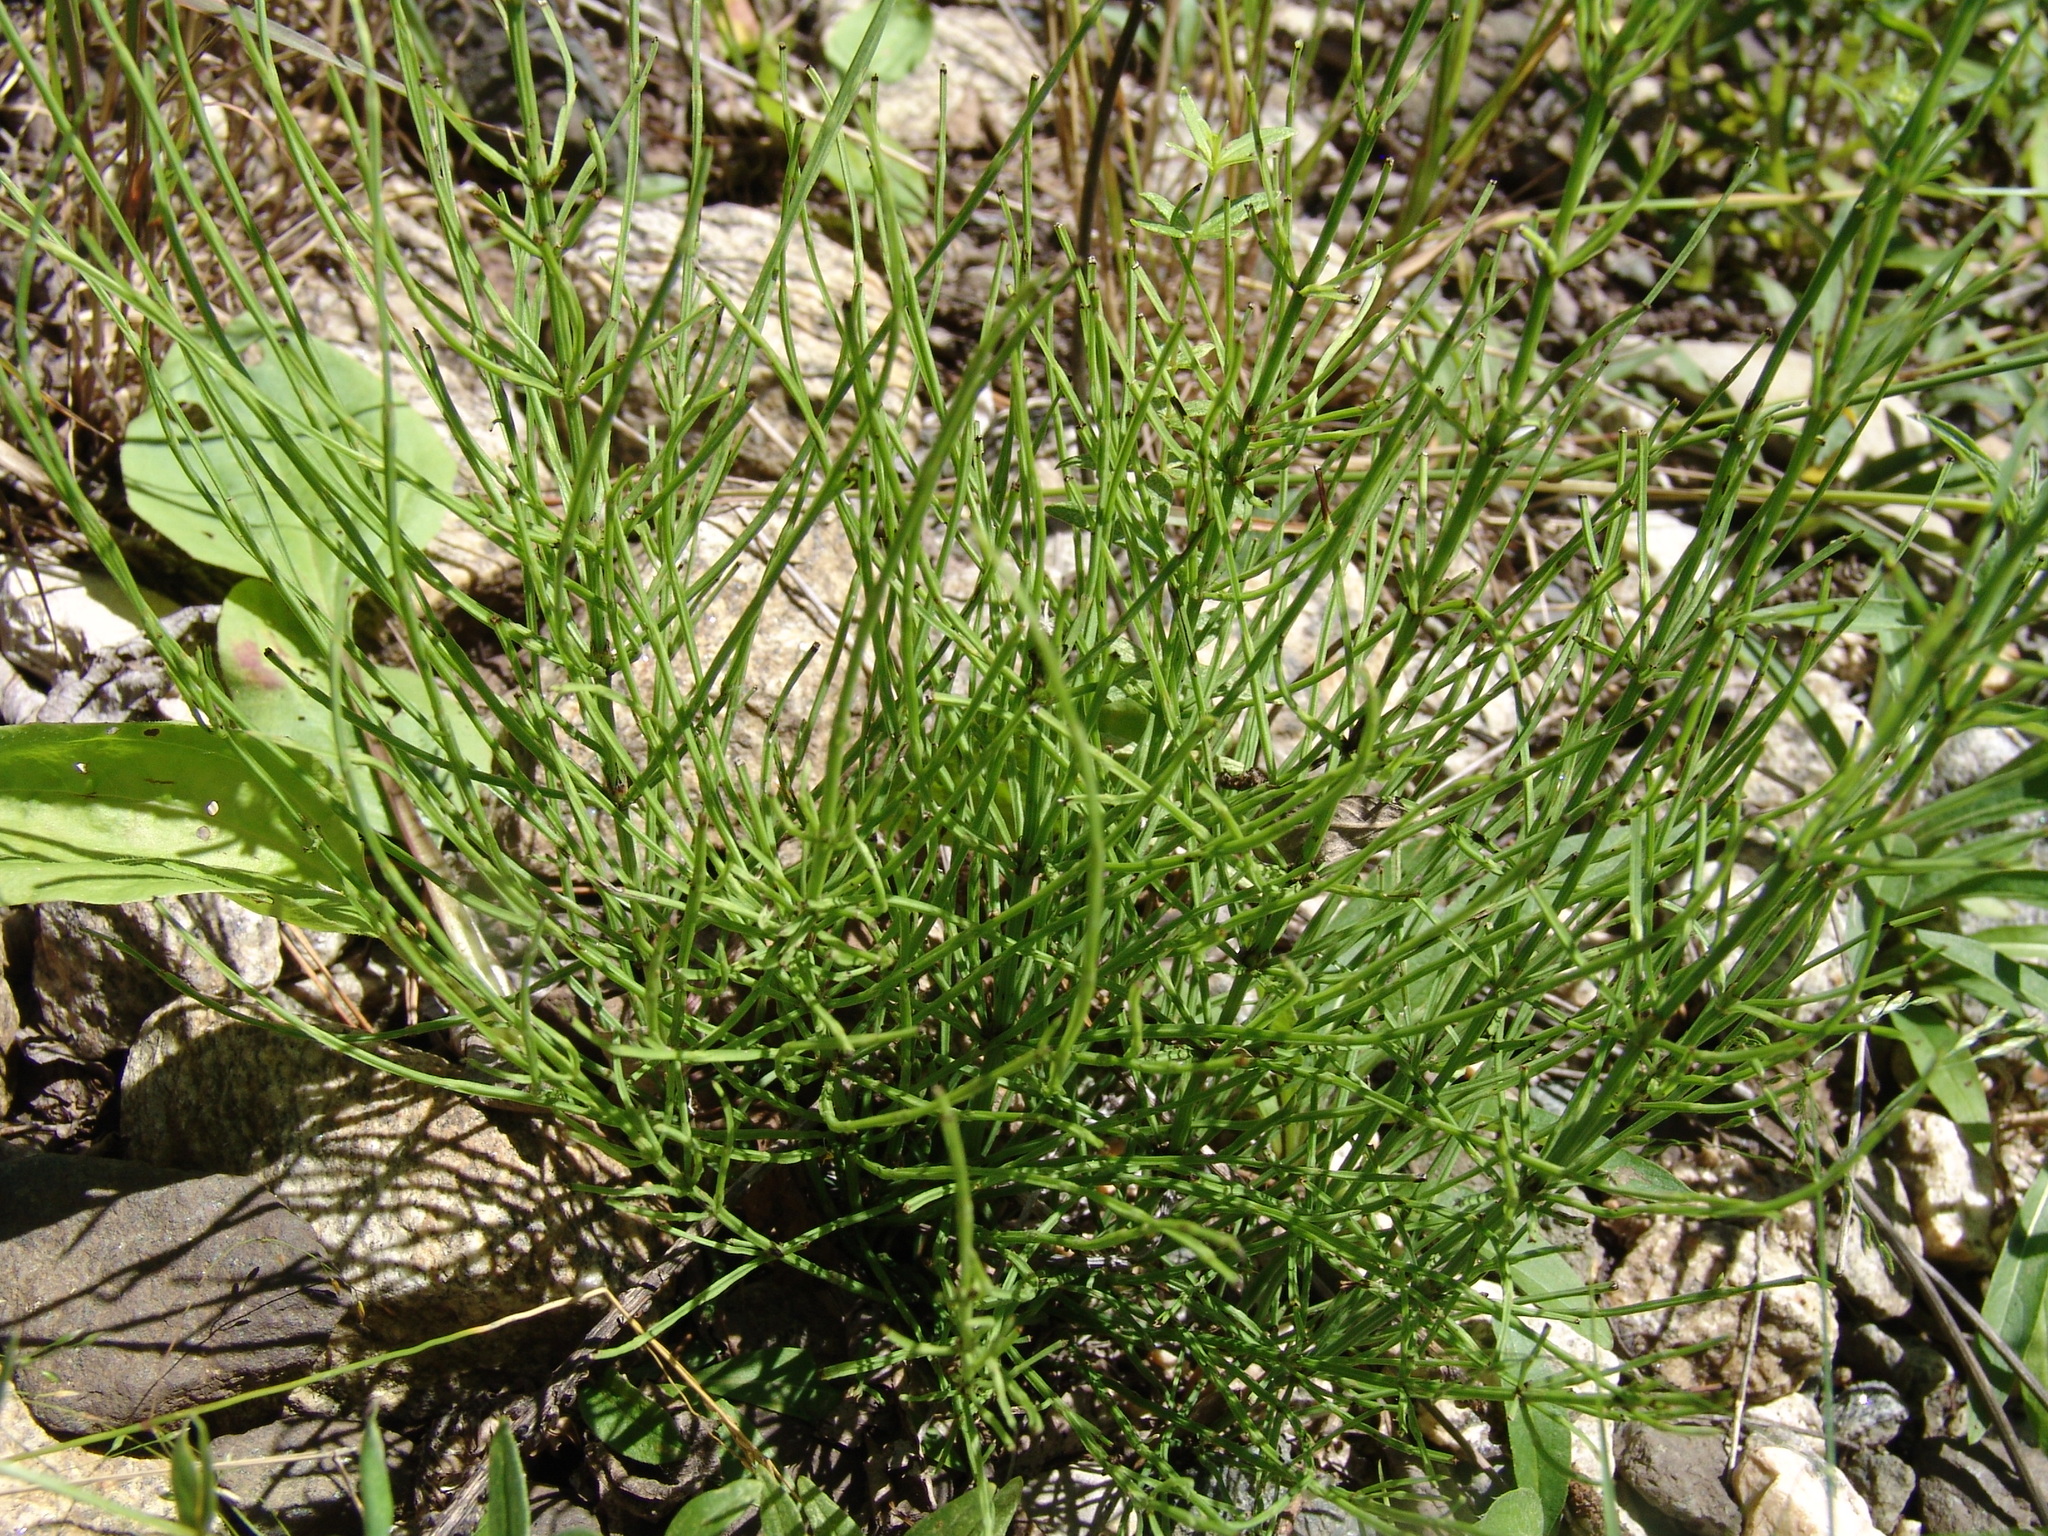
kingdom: Plantae
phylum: Tracheophyta
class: Polypodiopsida
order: Equisetales
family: Equisetaceae
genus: Equisetum
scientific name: Equisetum arvense
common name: Field horsetail
